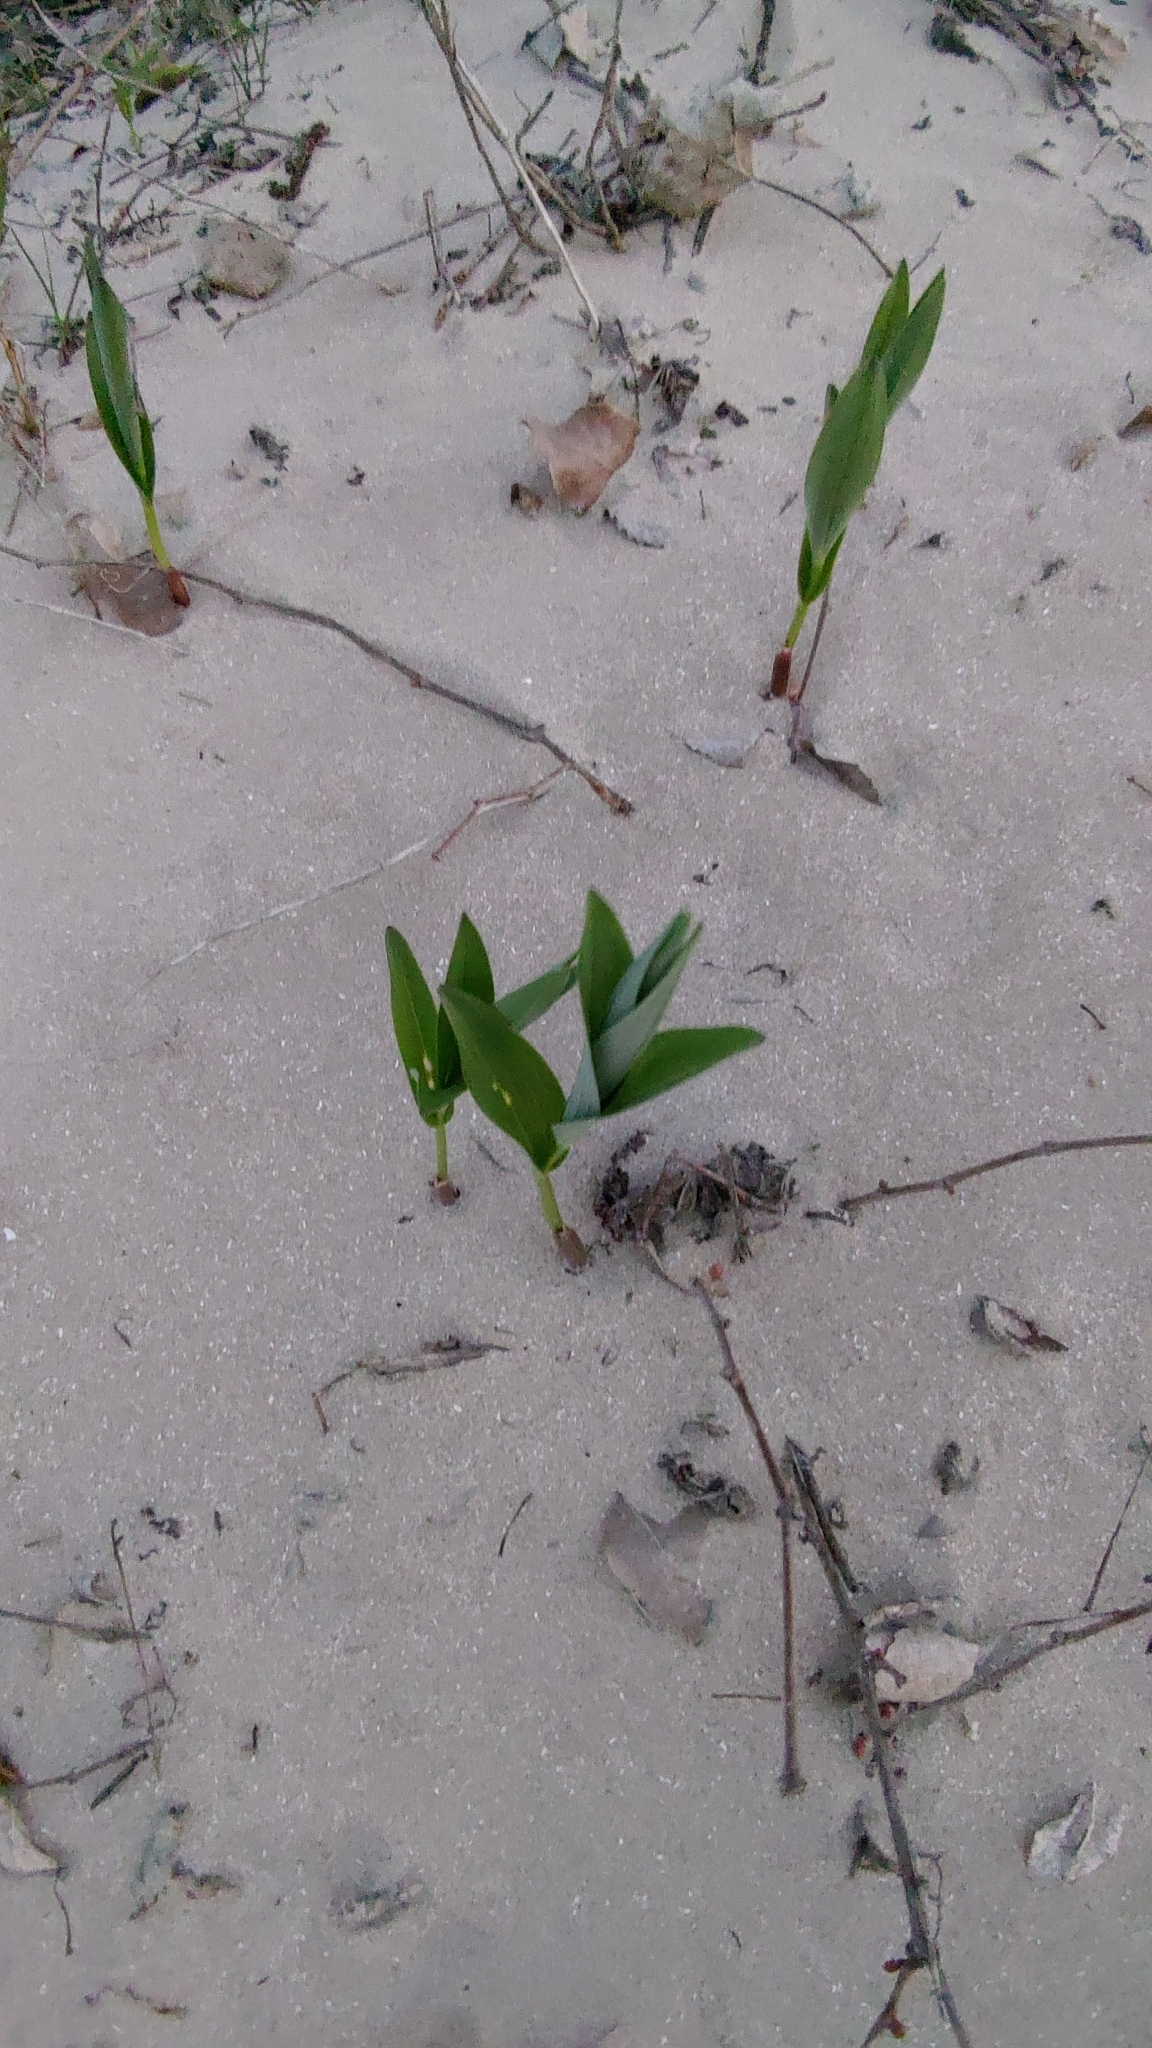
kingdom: Plantae
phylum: Tracheophyta
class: Liliopsida
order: Asparagales
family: Asparagaceae
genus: Maianthemum
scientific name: Maianthemum stellatum
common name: Little false solomon's seal
